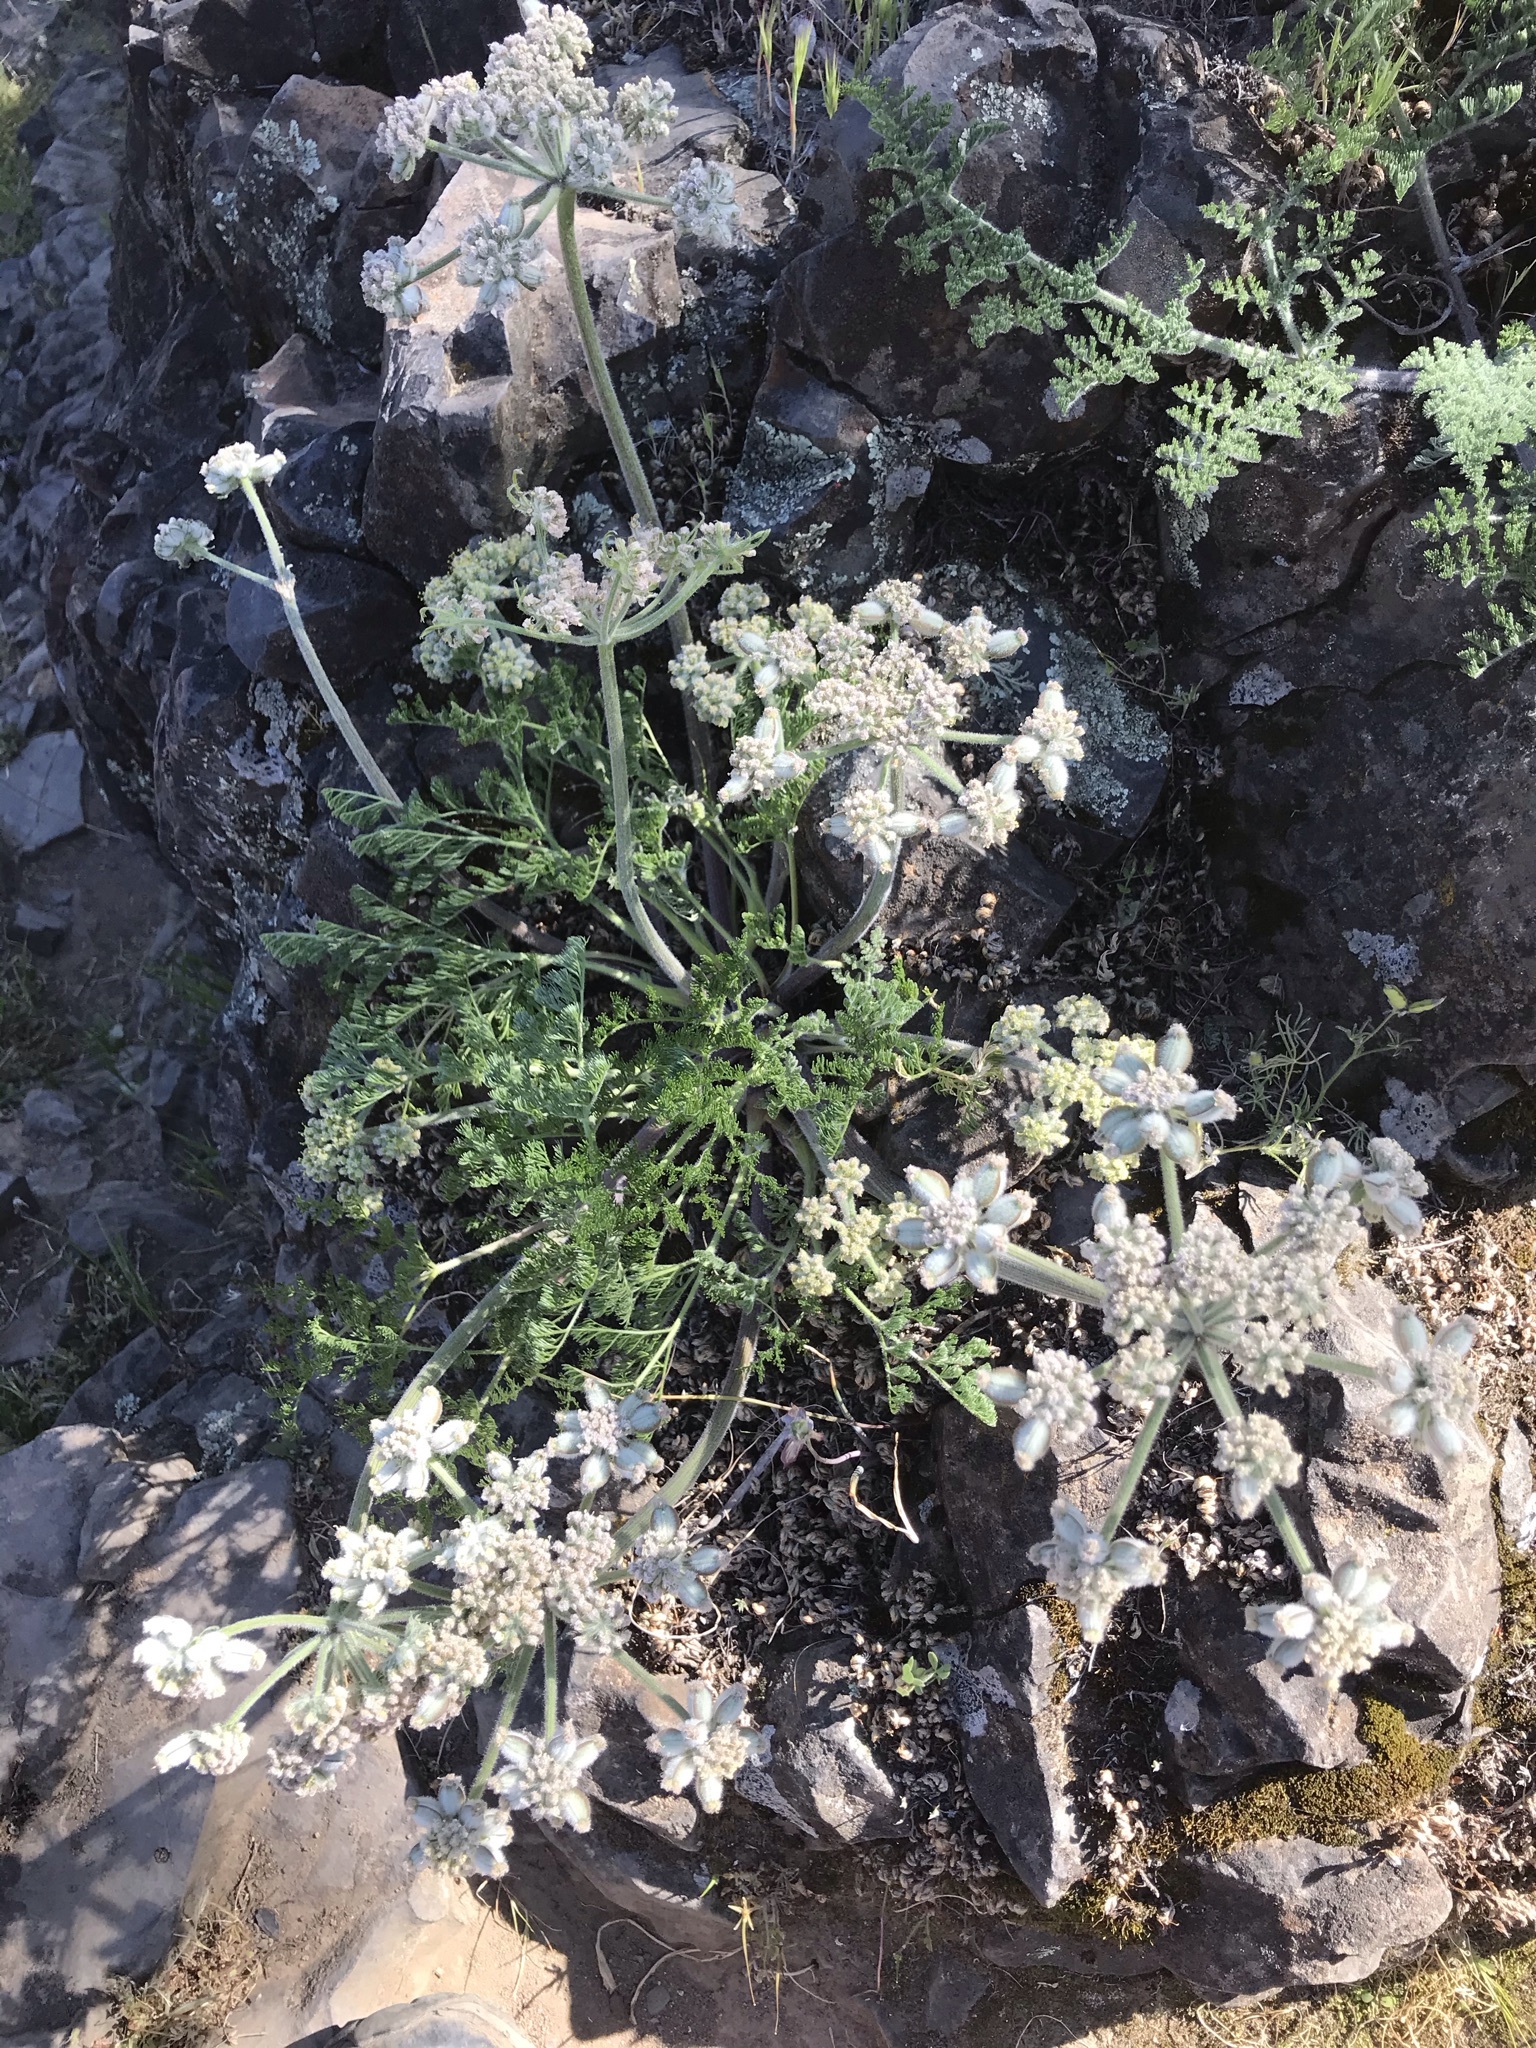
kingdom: Plantae
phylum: Tracheophyta
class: Magnoliopsida
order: Apiales
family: Apiaceae
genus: Lomatium
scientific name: Lomatium dasycarpum
